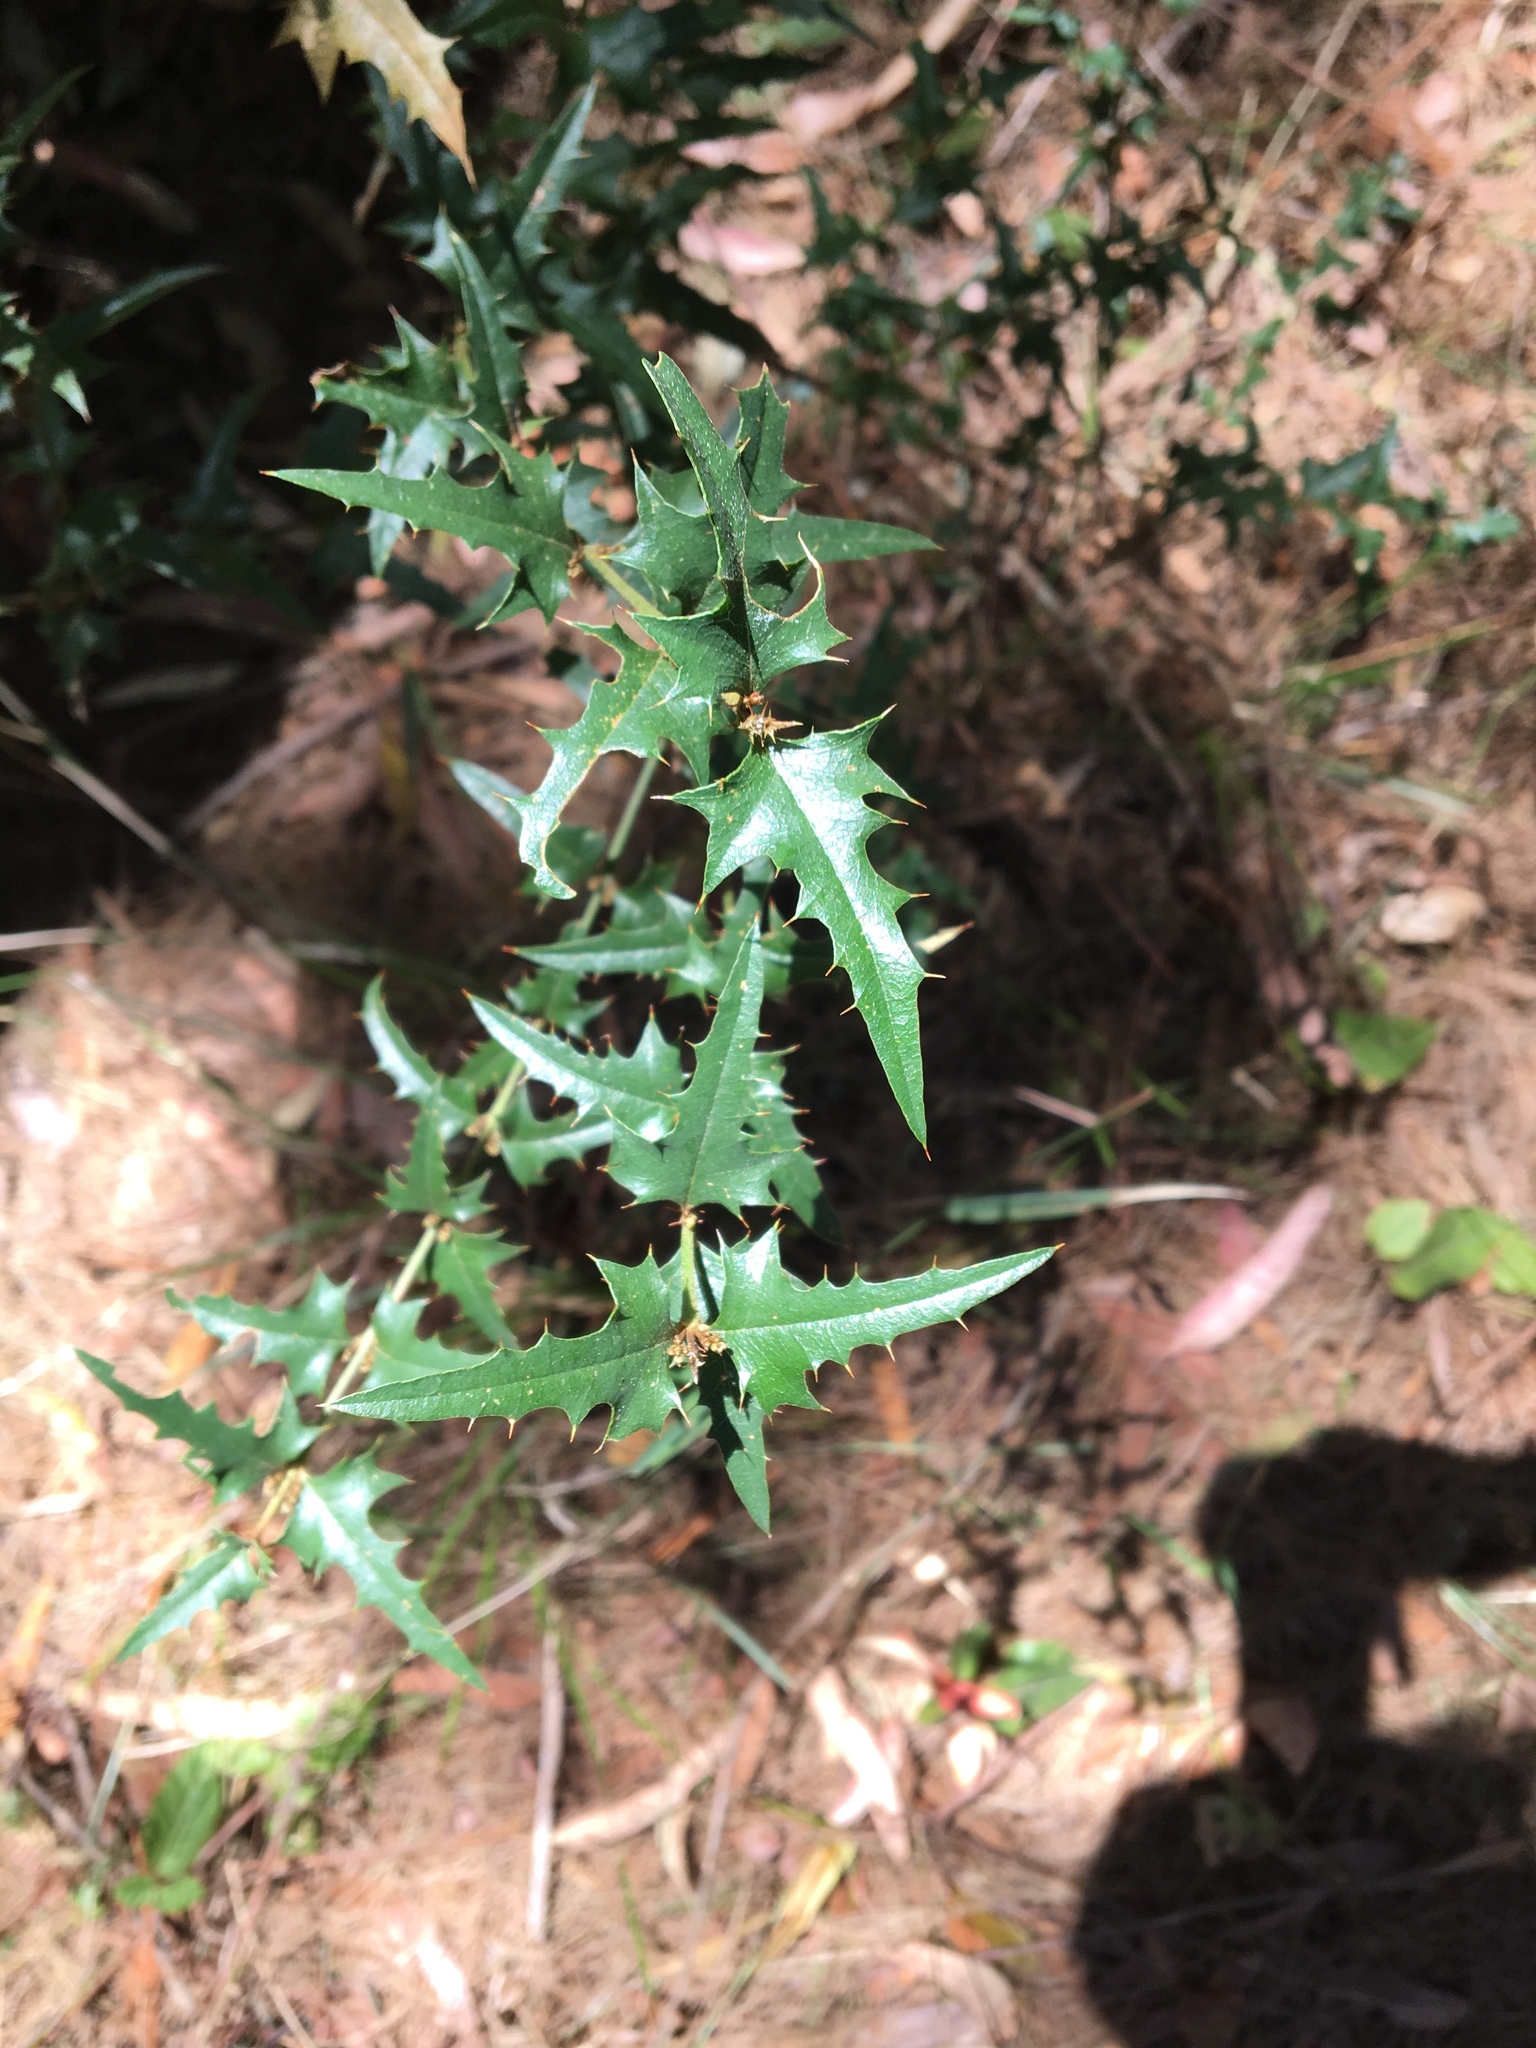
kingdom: Plantae
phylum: Tracheophyta
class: Magnoliopsida
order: Fabales
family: Fabaceae
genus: Podolobium
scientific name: Podolobium ilicifolium
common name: Native holly
